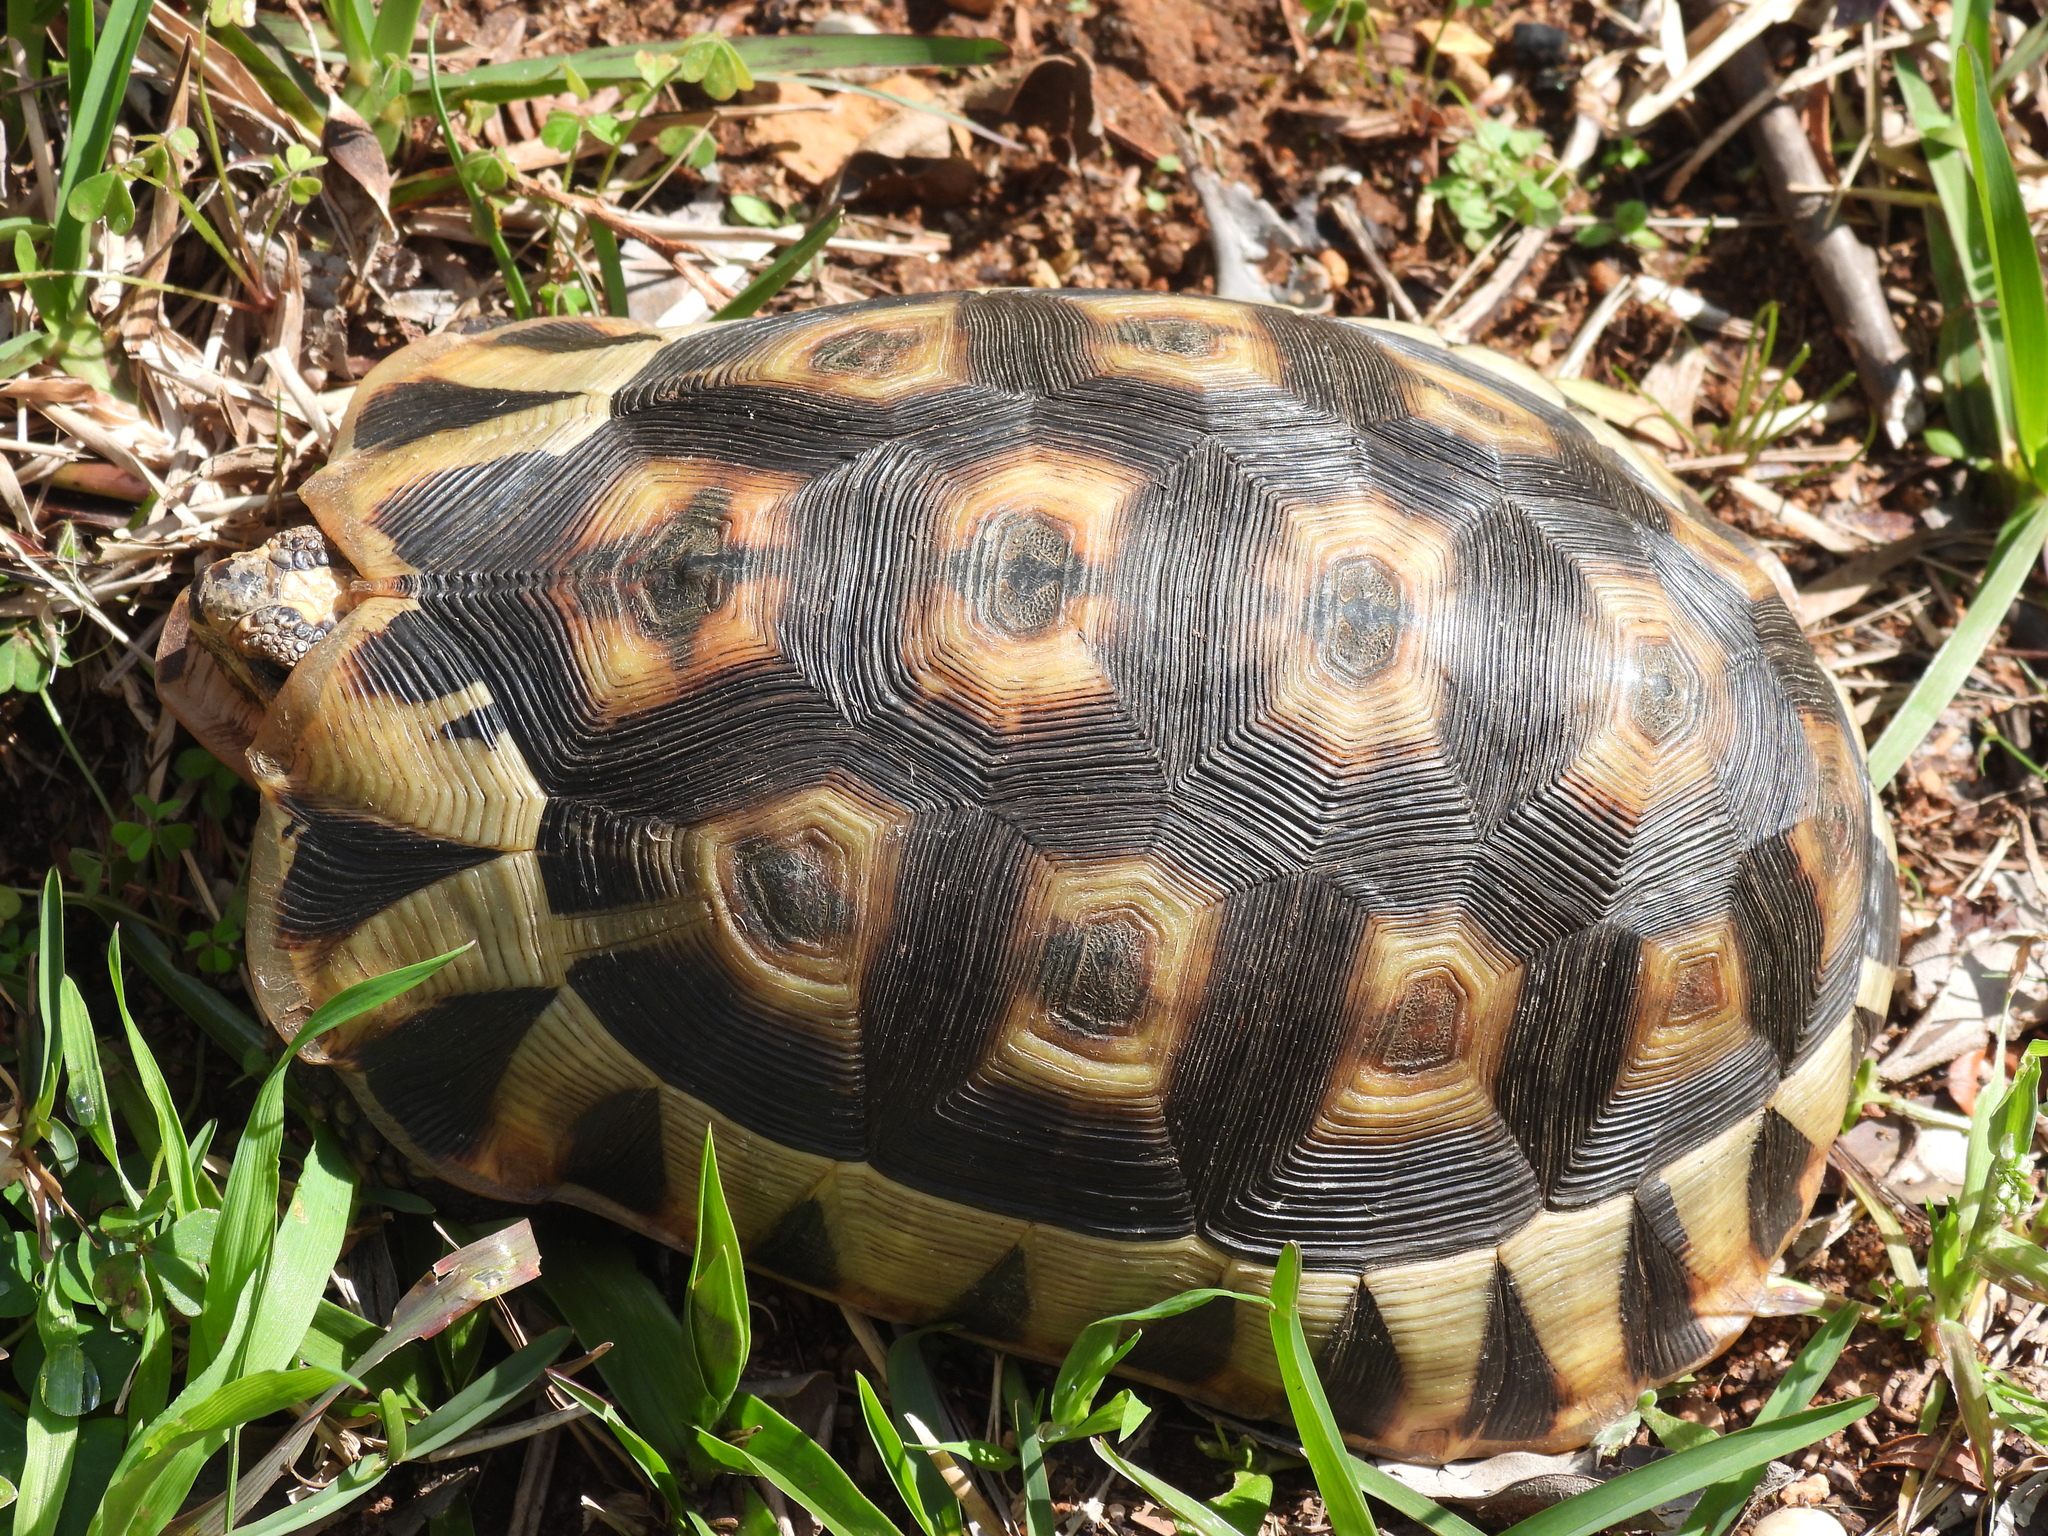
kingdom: Animalia
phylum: Chordata
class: Testudines
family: Testudinidae
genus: Chersina
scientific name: Chersina angulata
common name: South african bowsprit tortoise
